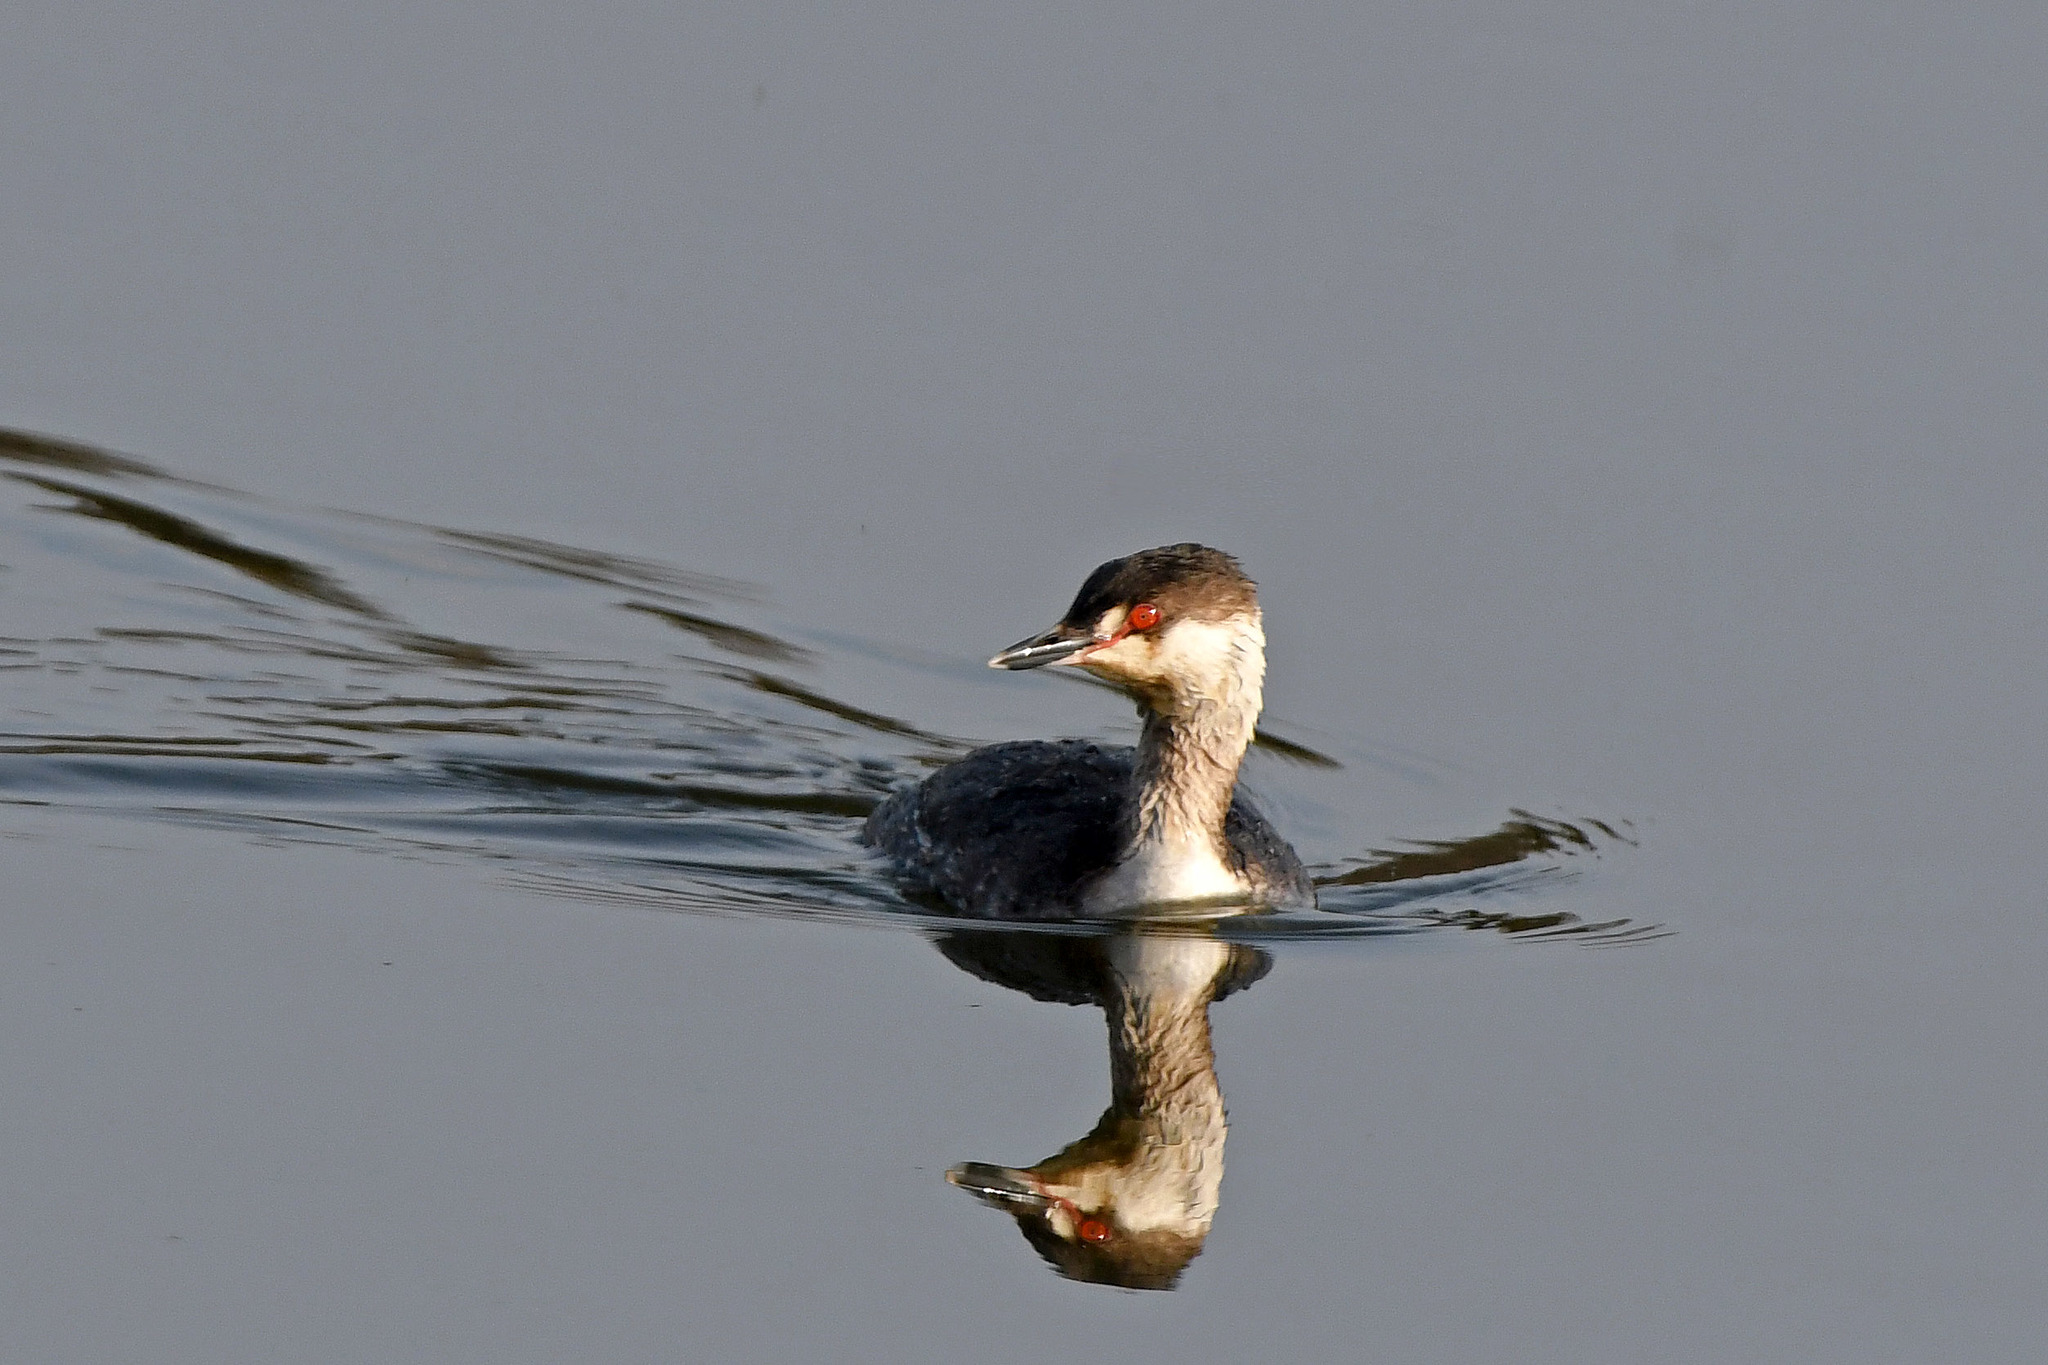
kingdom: Animalia
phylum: Chordata
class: Aves
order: Podicipediformes
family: Podicipedidae
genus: Podiceps
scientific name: Podiceps auritus
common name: Horned grebe
